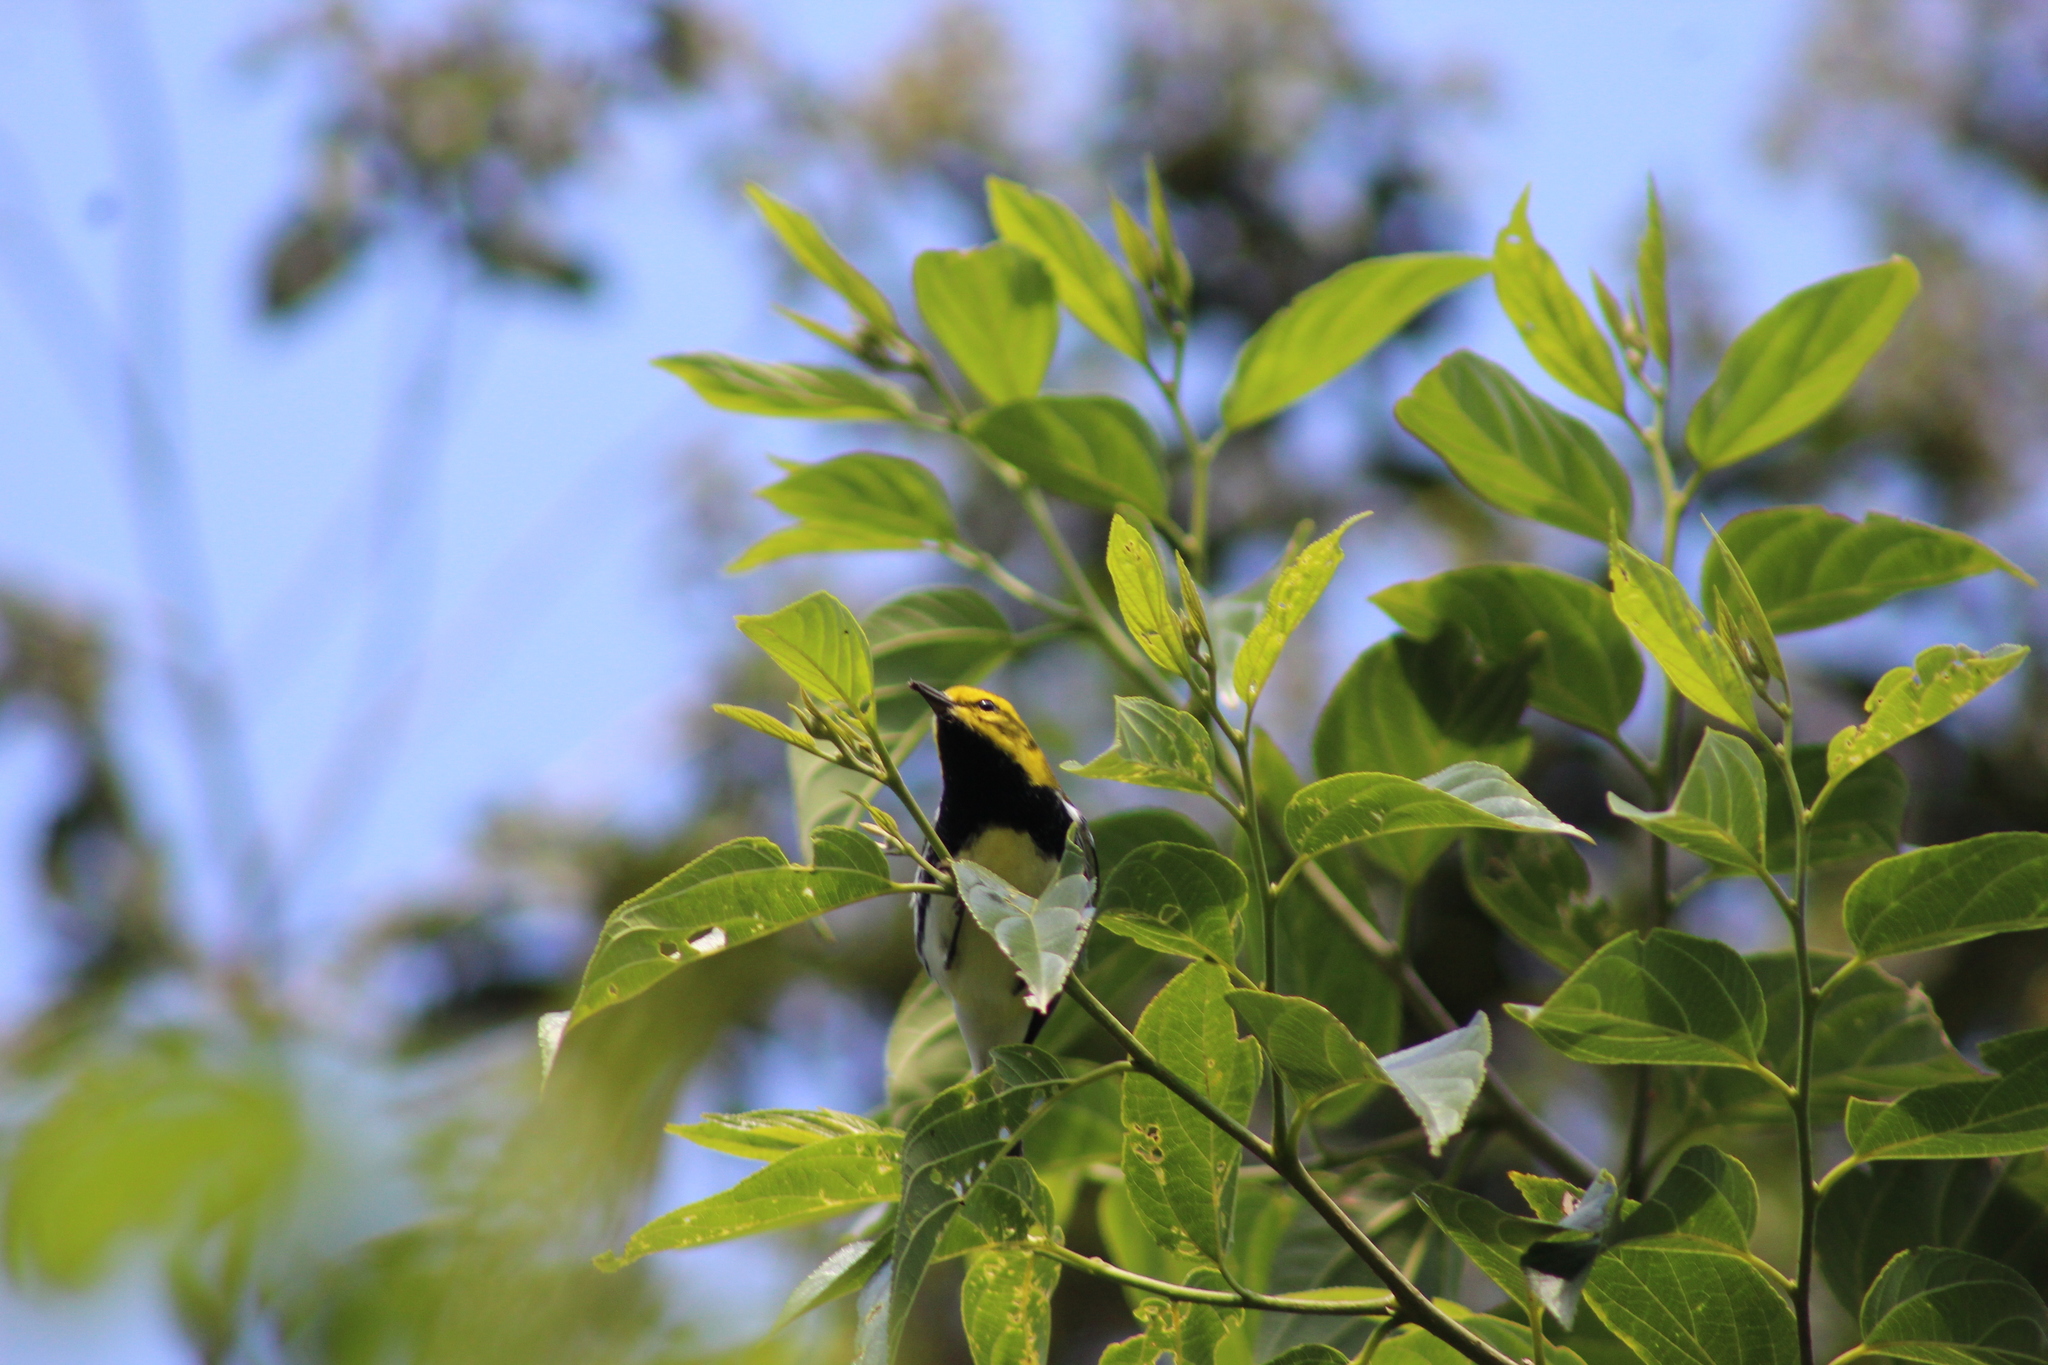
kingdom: Animalia
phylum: Chordata
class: Aves
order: Passeriformes
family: Parulidae
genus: Setophaga
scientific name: Setophaga virens
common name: Black-throated green warbler
